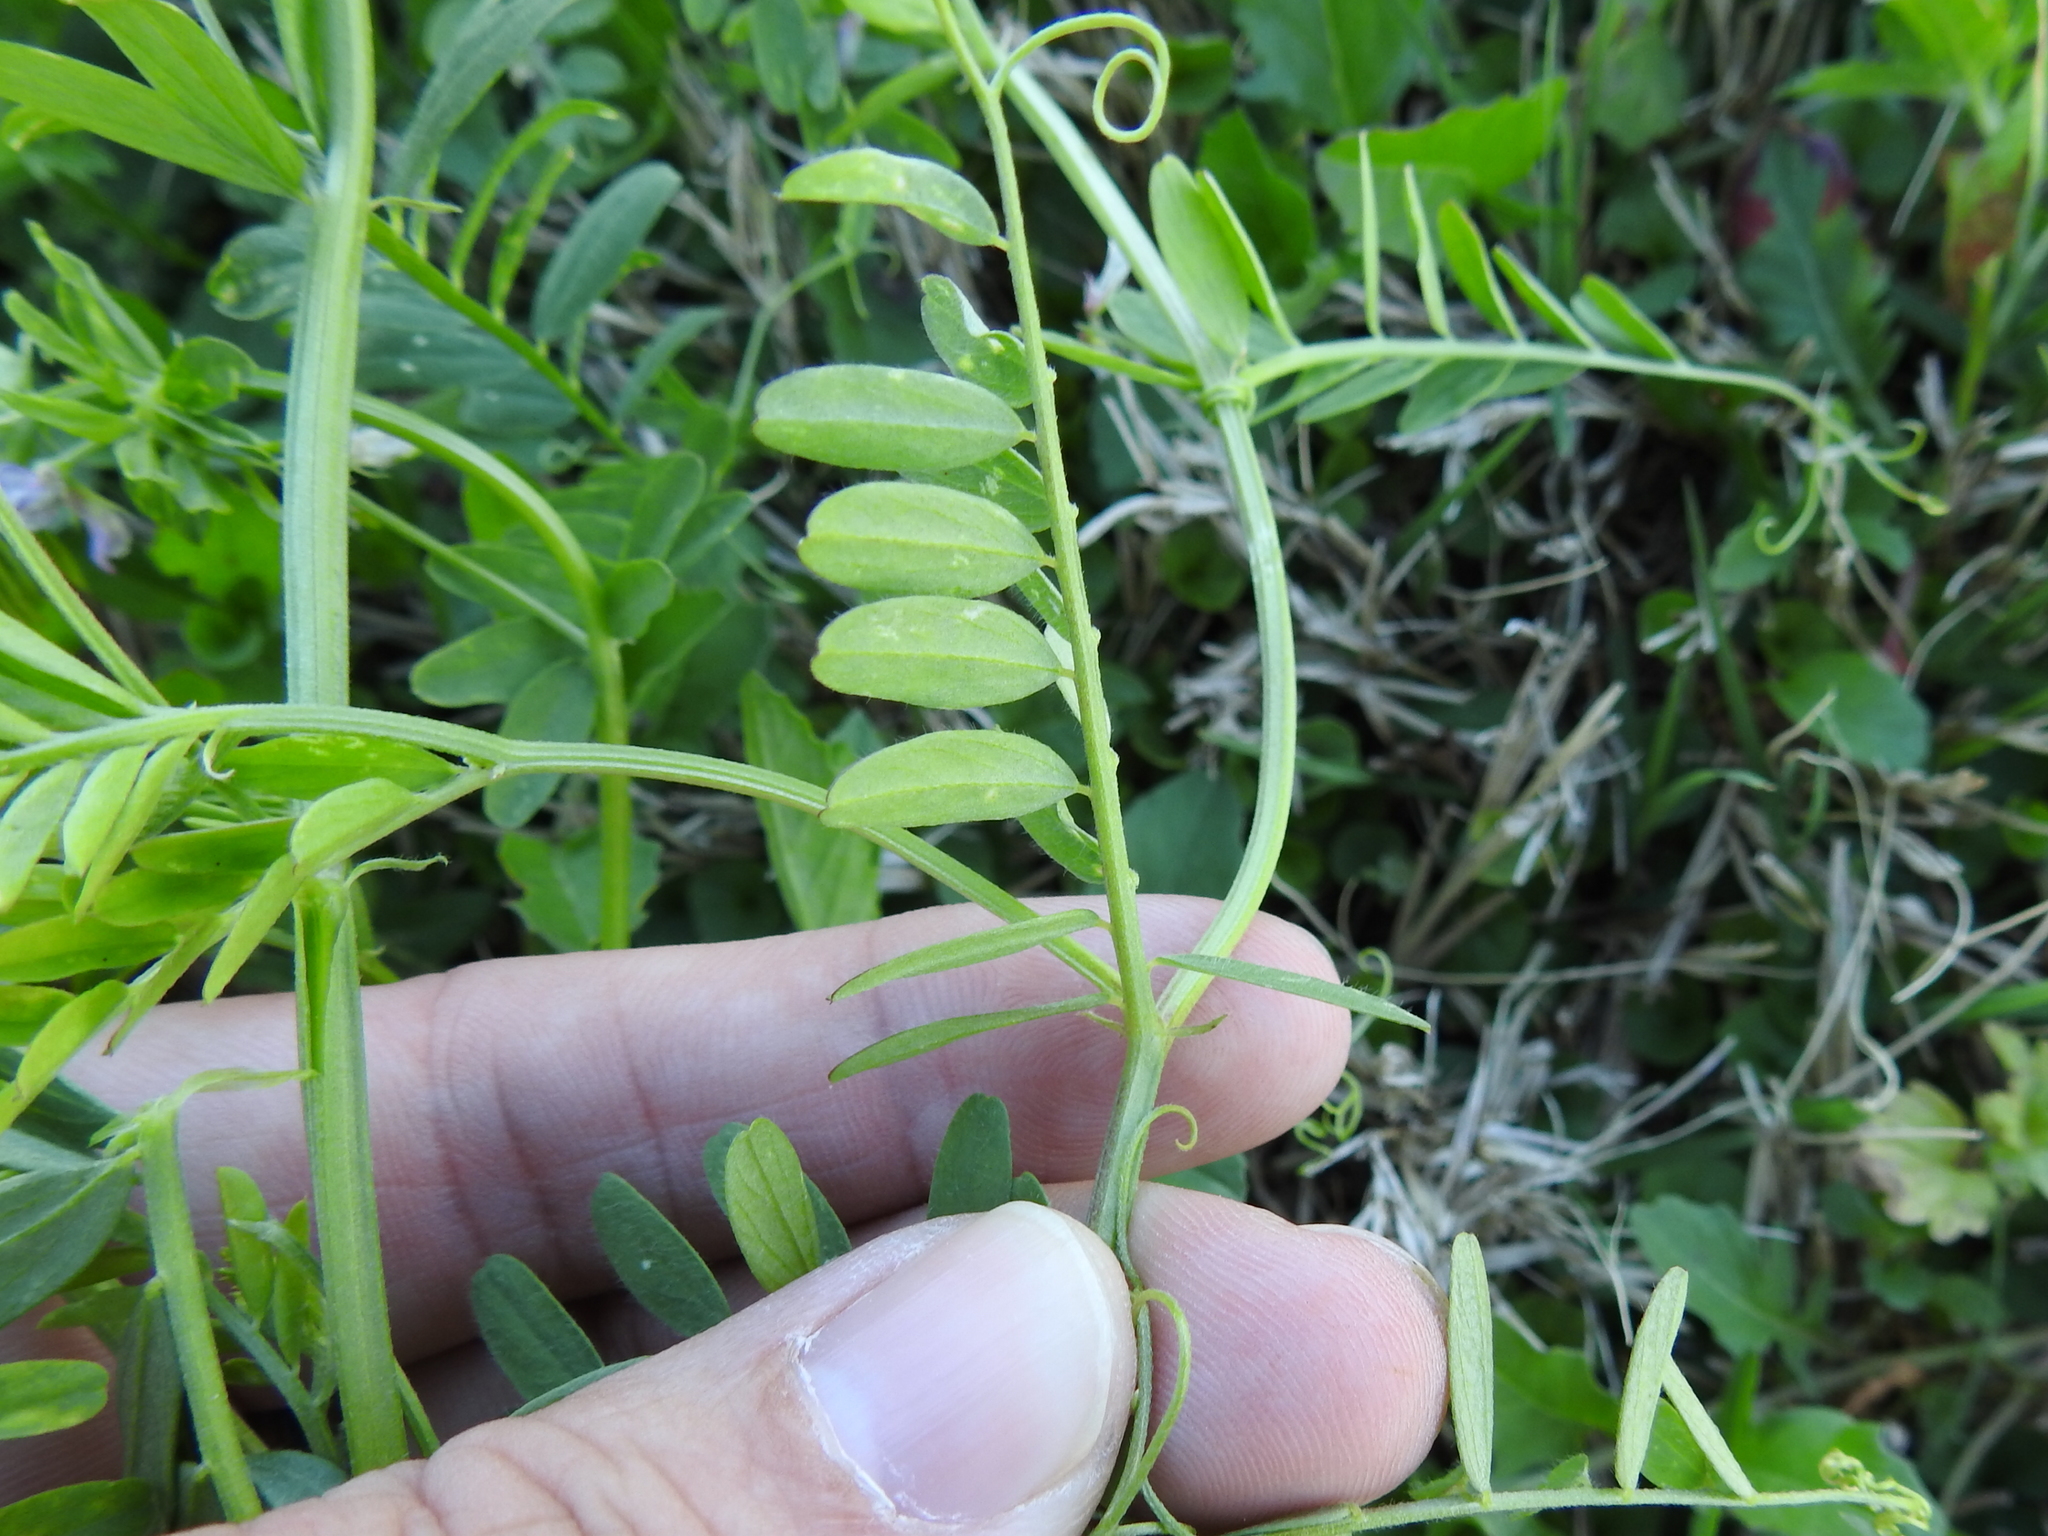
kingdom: Plantae
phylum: Tracheophyta
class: Magnoliopsida
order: Fabales
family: Fabaceae
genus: Vicia
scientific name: Vicia ludoviciana
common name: Louisiana vetch
